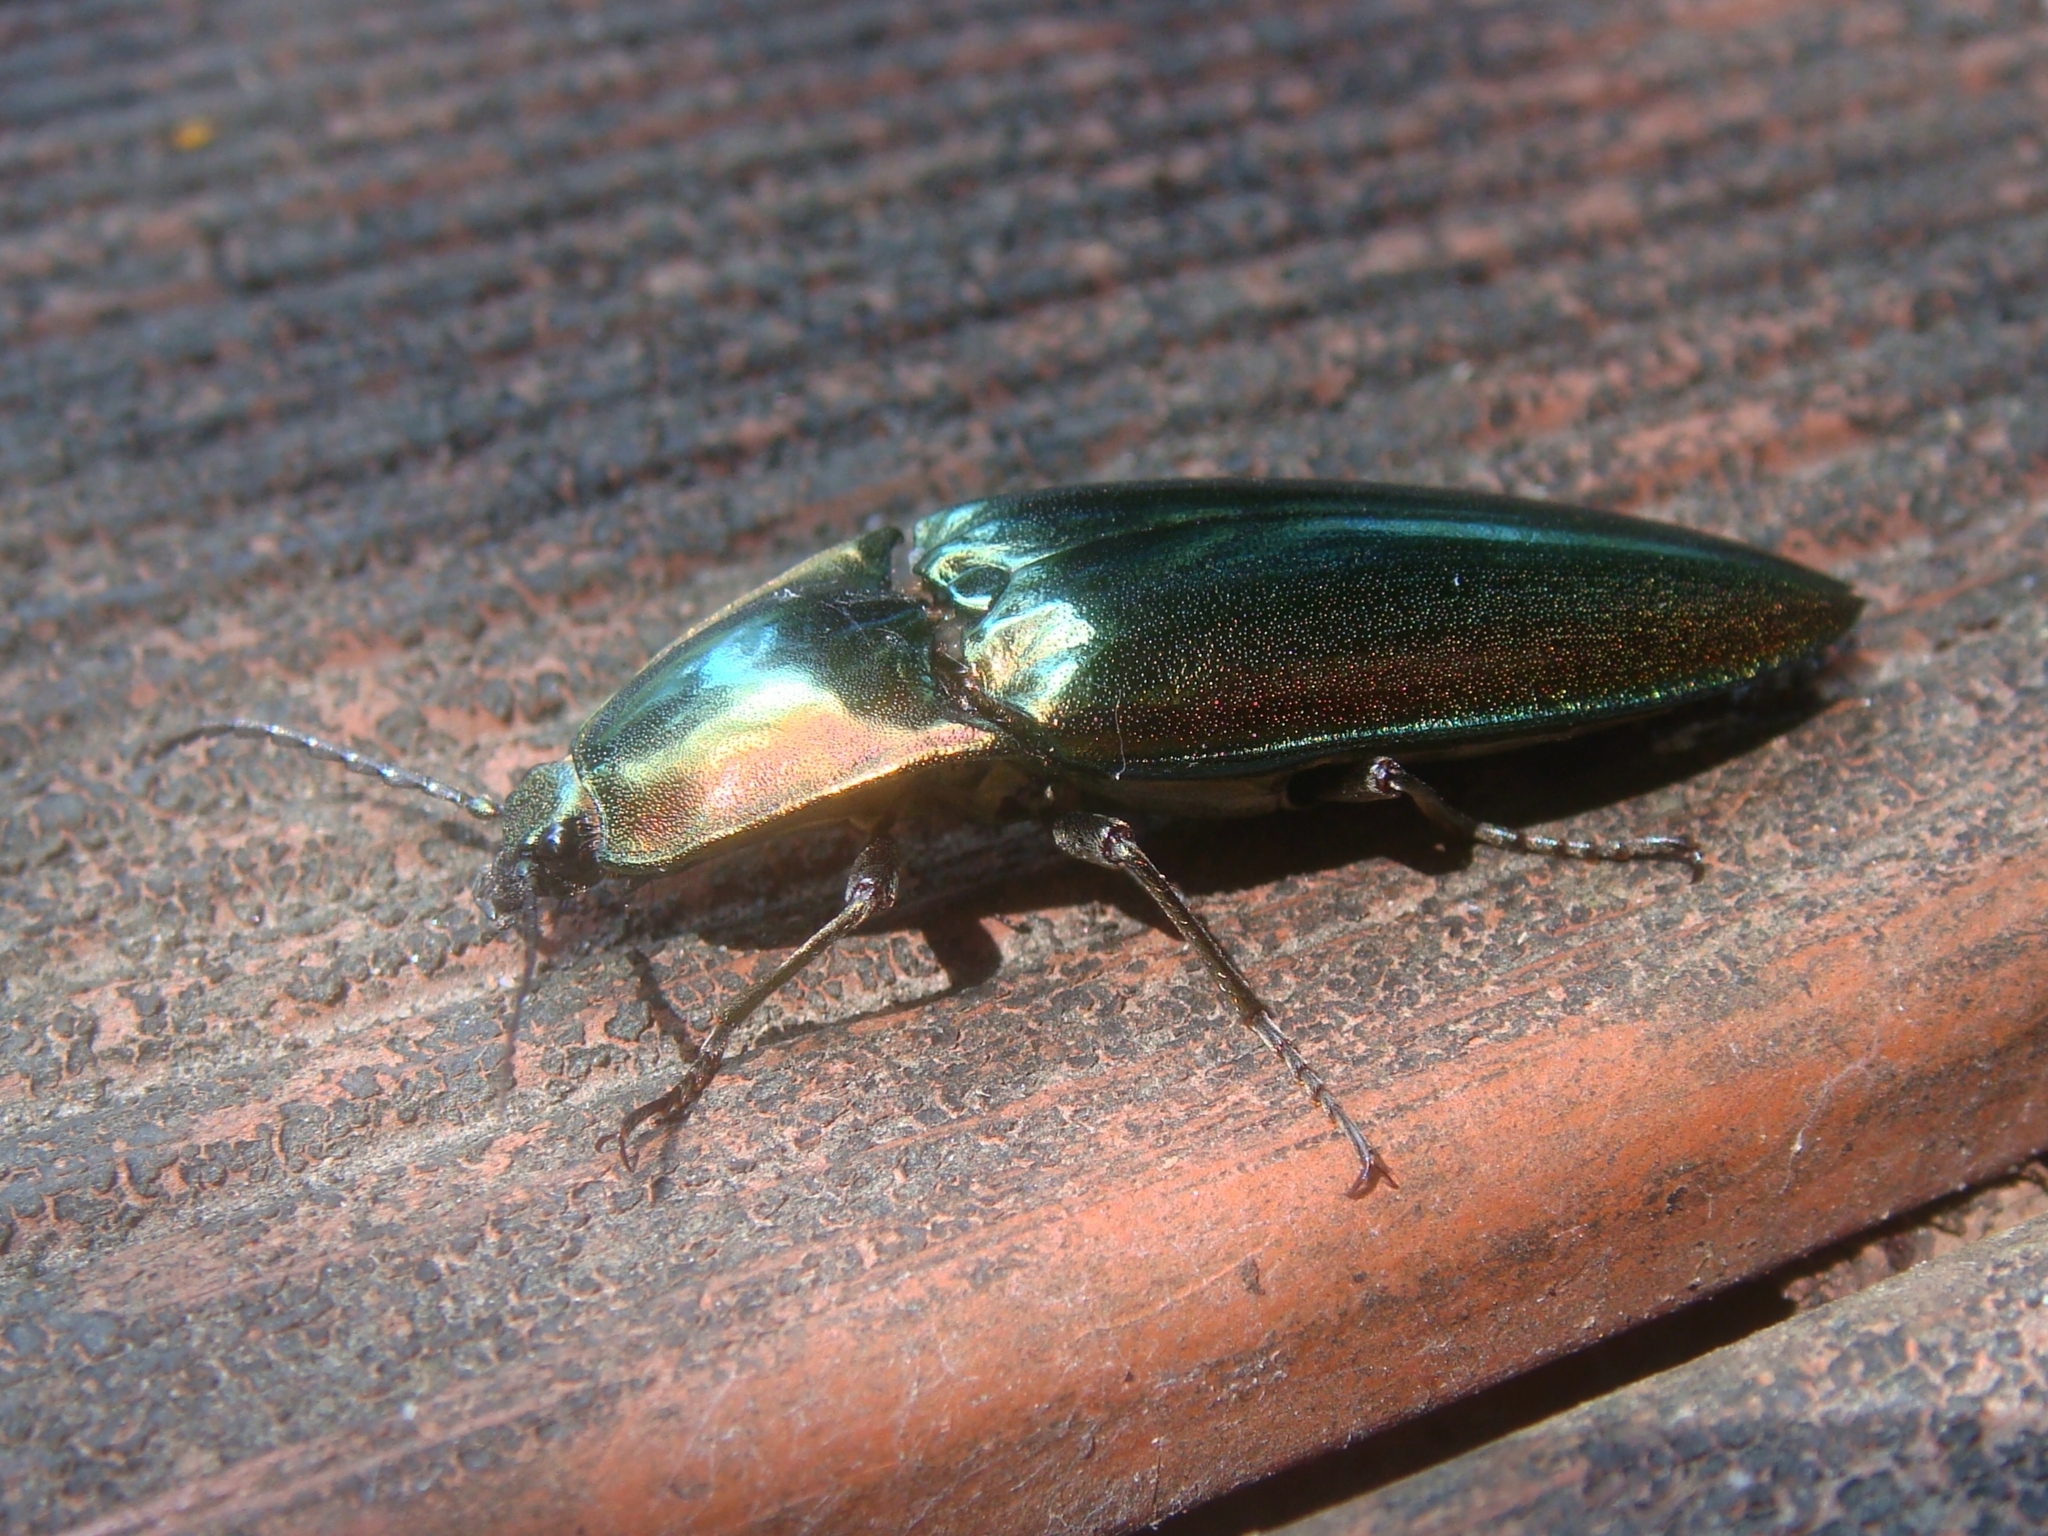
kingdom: Animalia
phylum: Arthropoda
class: Insecta
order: Coleoptera
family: Elateridae
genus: Campsosternus
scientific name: Campsosternus auratus
